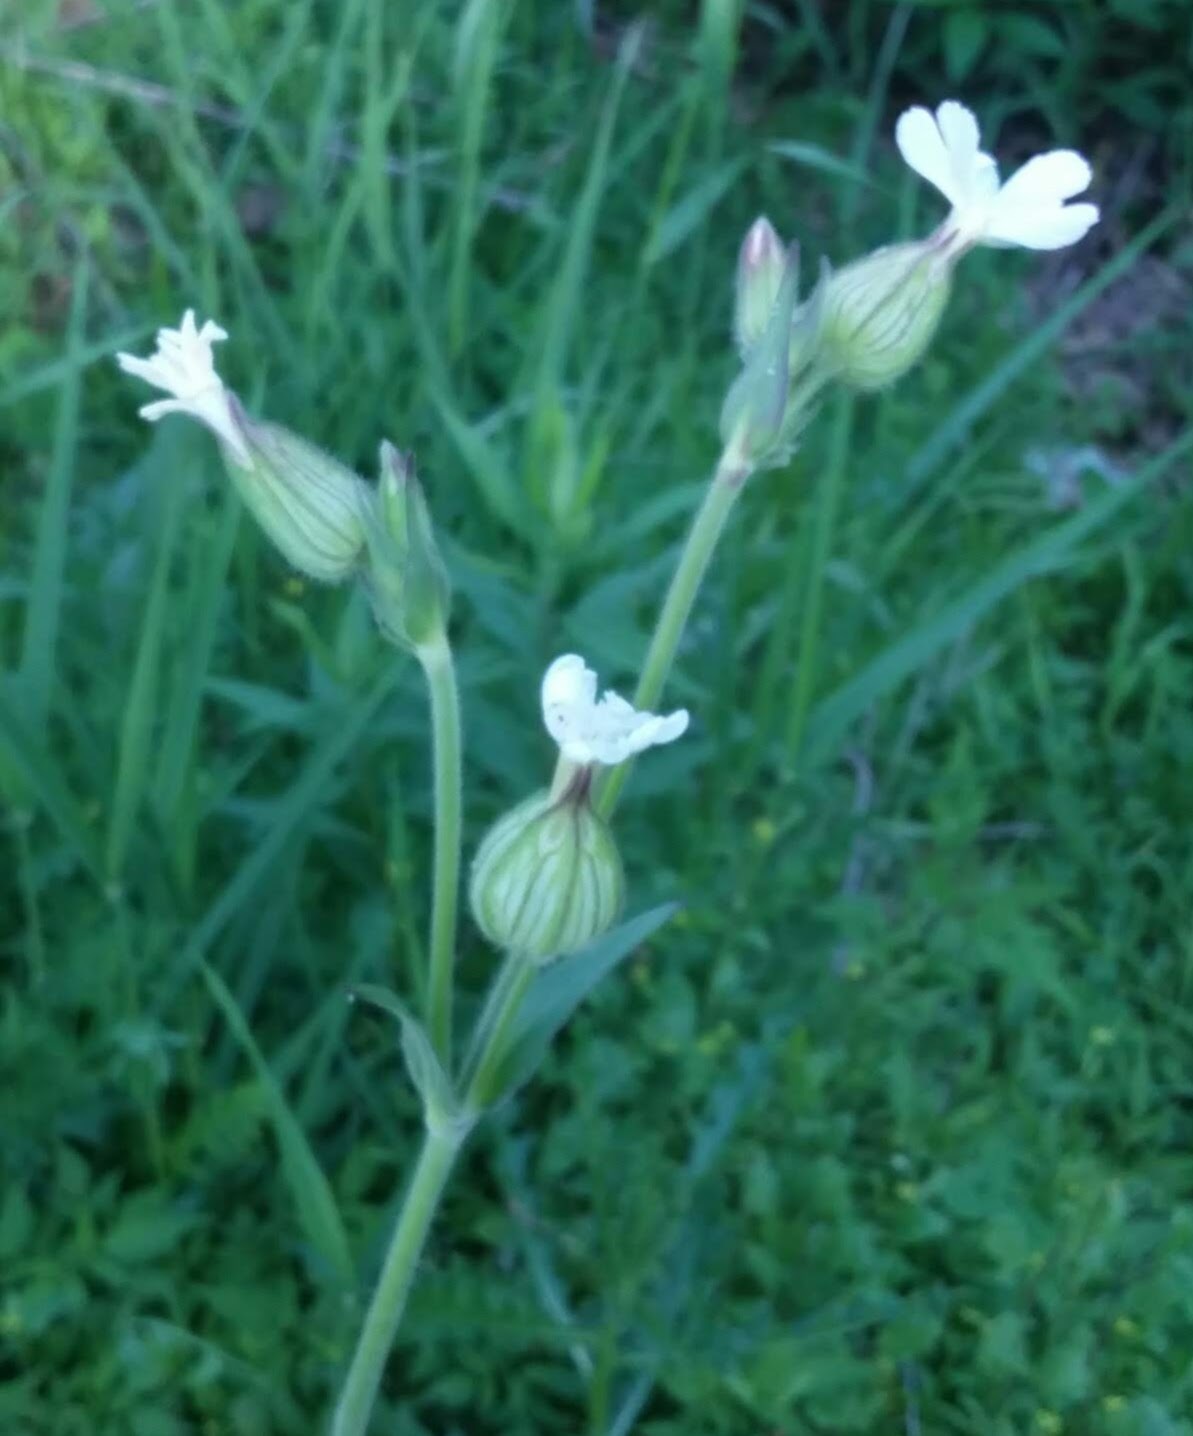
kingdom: Plantae
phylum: Tracheophyta
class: Magnoliopsida
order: Caryophyllales
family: Caryophyllaceae
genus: Silene
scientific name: Silene latifolia
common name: White campion
